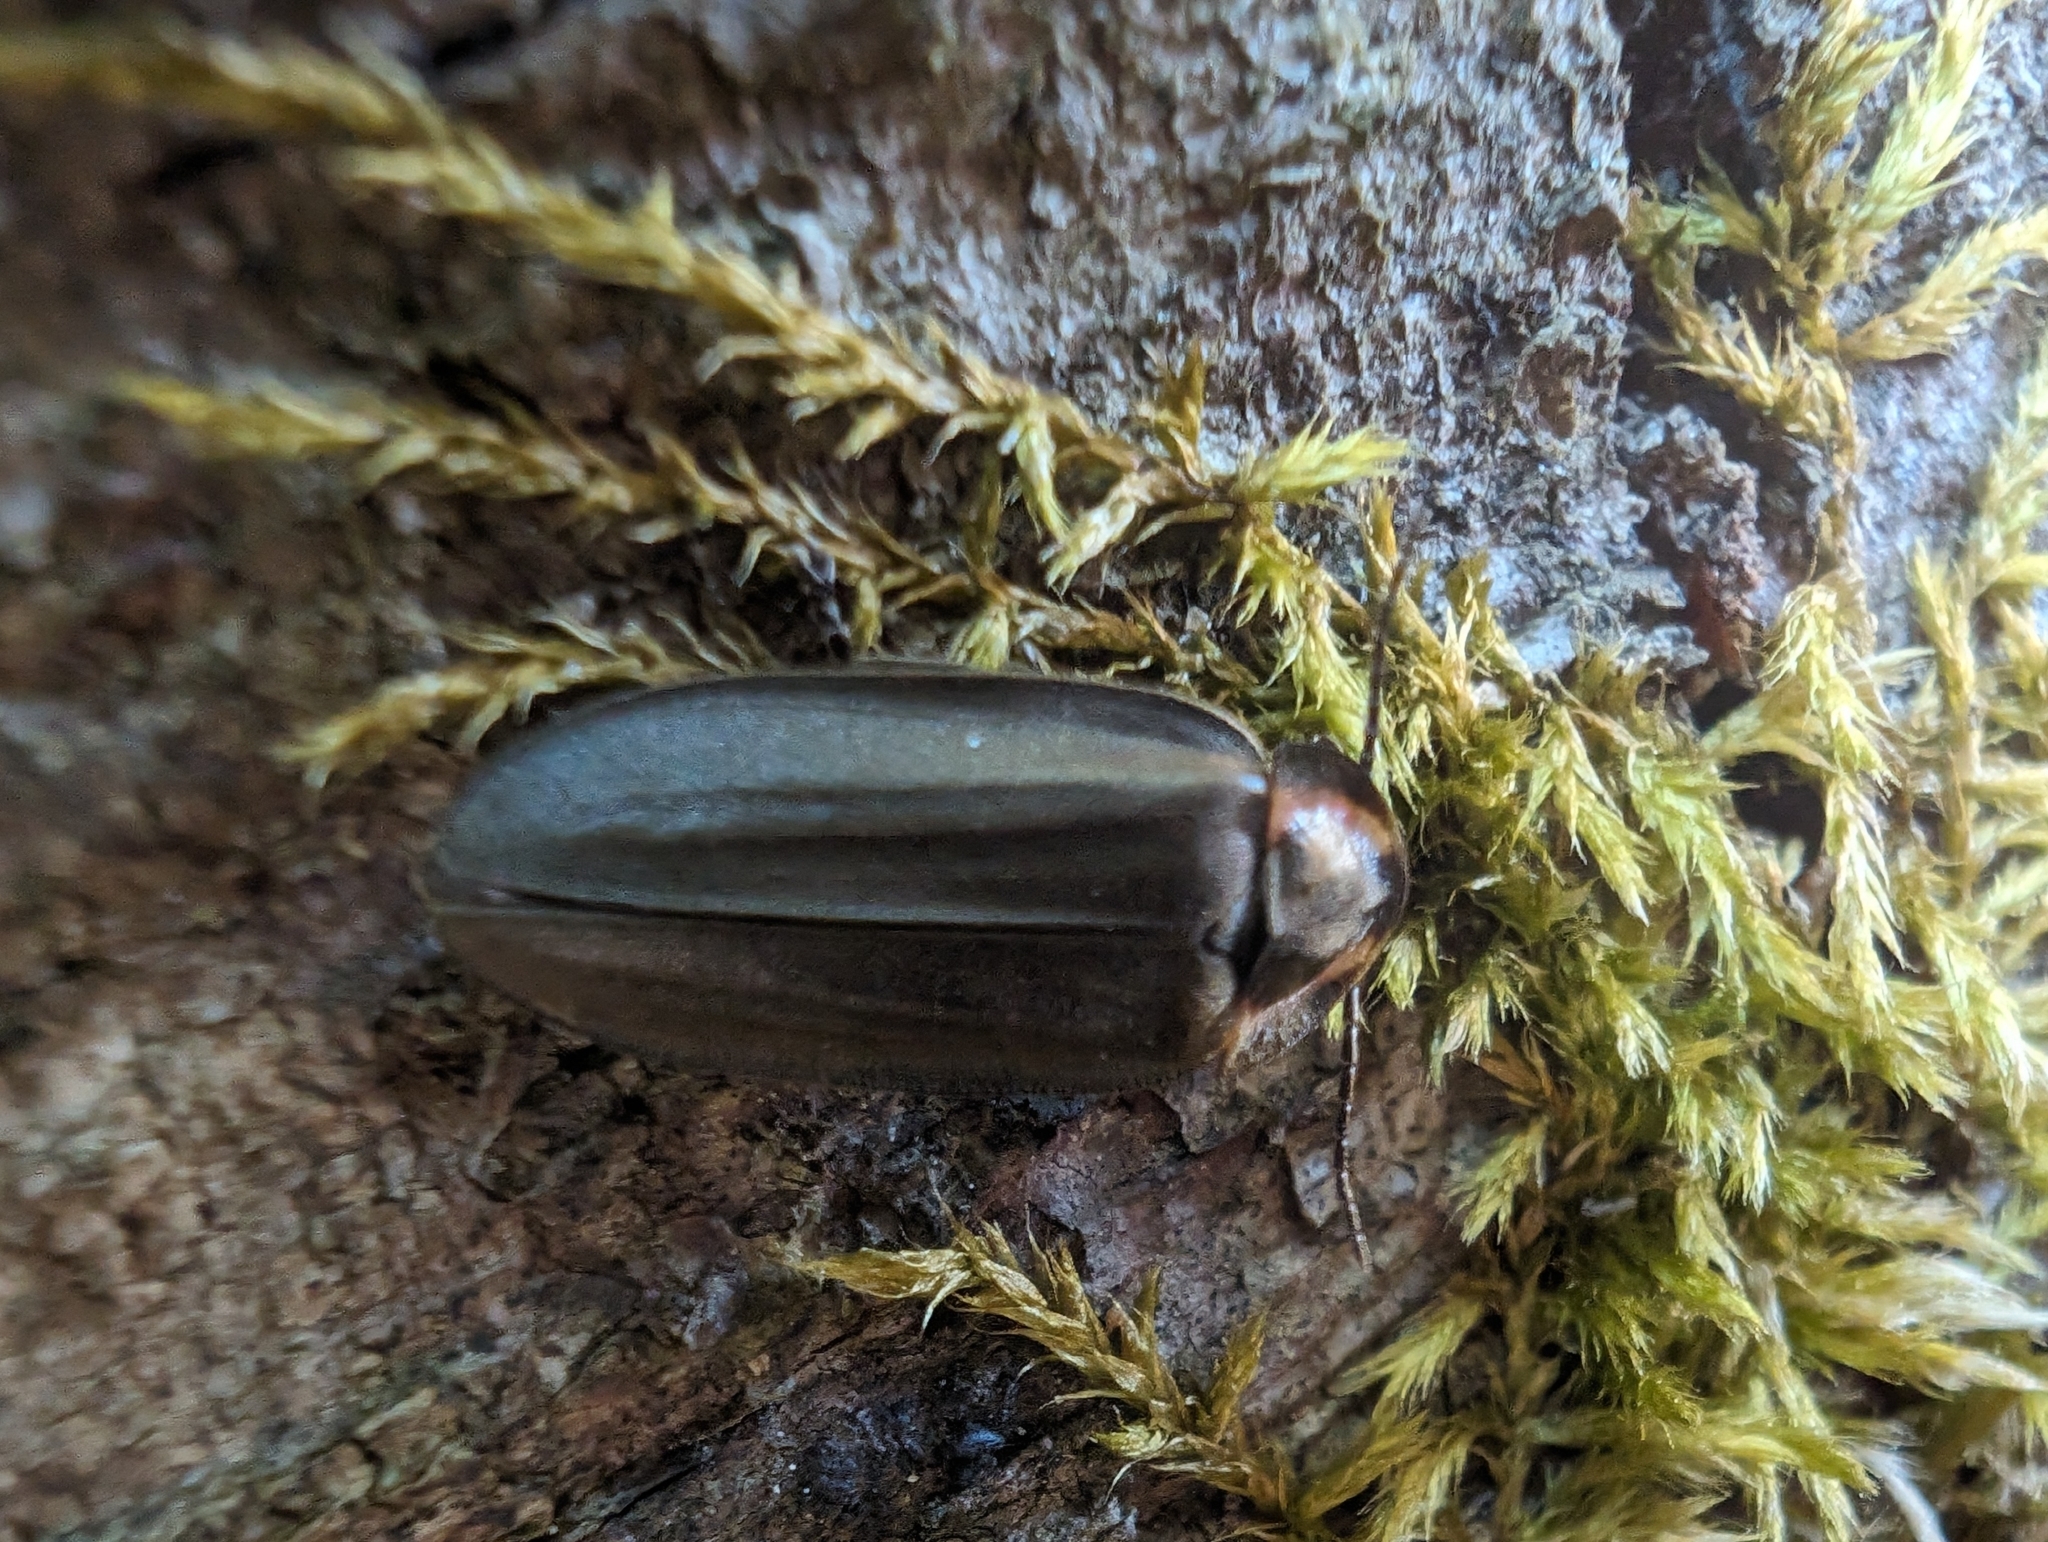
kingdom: Animalia
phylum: Arthropoda
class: Insecta
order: Coleoptera
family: Lampyridae
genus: Photinus
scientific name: Photinus corrusca
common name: Winter firefly
